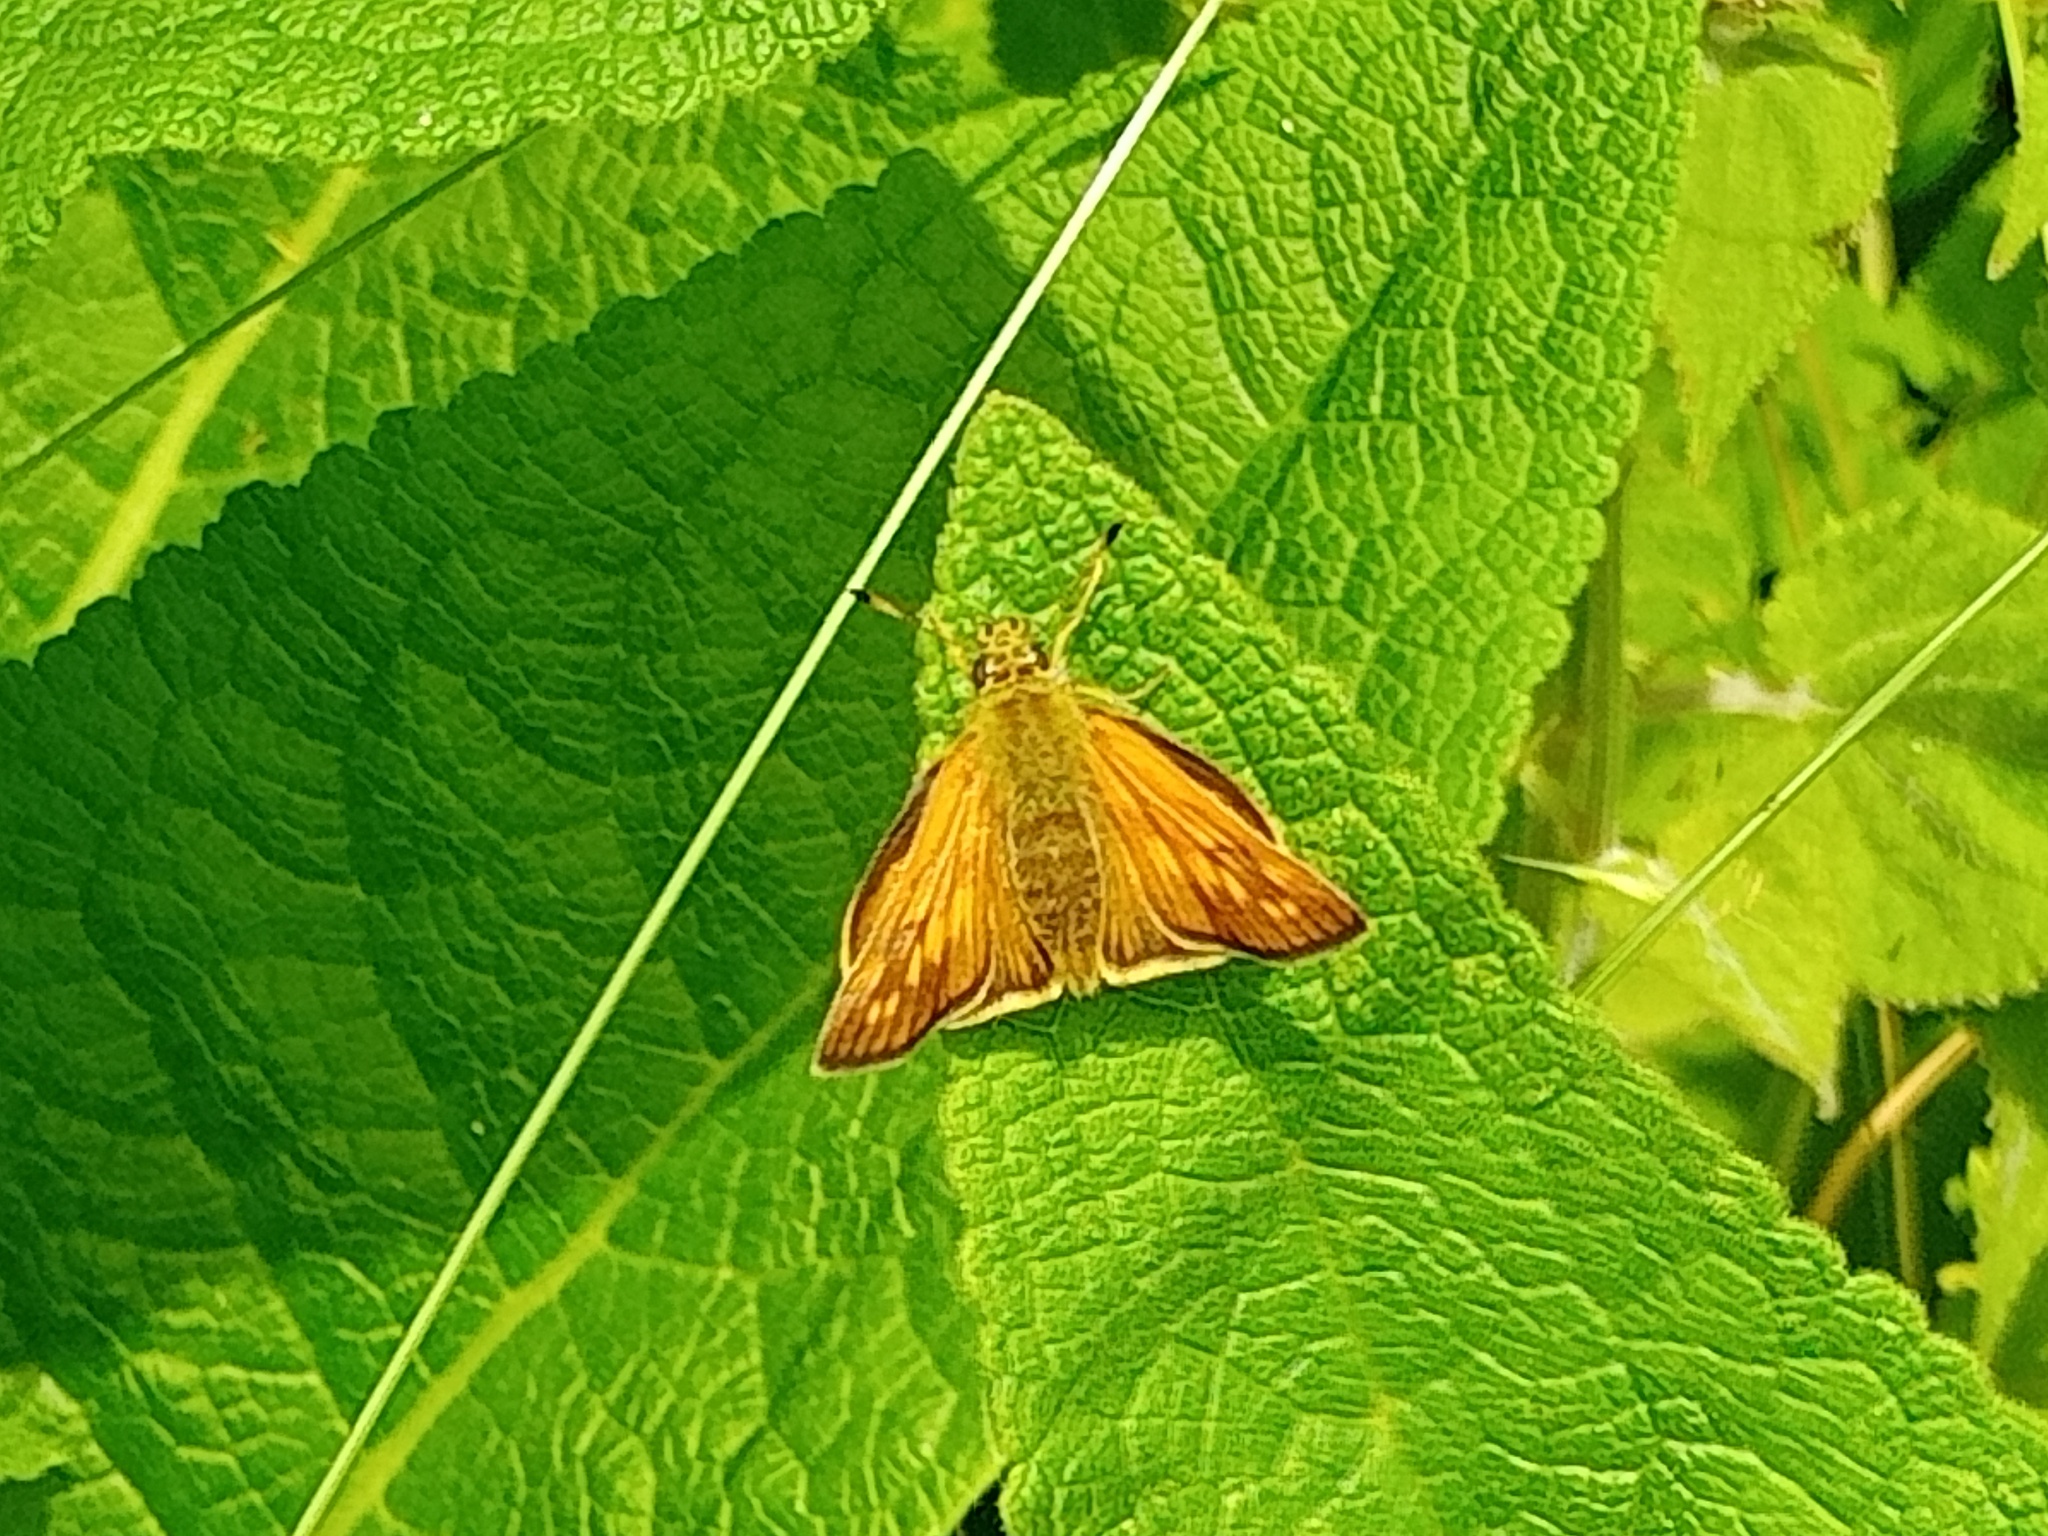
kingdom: Animalia
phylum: Arthropoda
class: Insecta
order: Lepidoptera
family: Hesperiidae
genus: Ochlodes
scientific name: Ochlodes venata
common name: Large skipper
